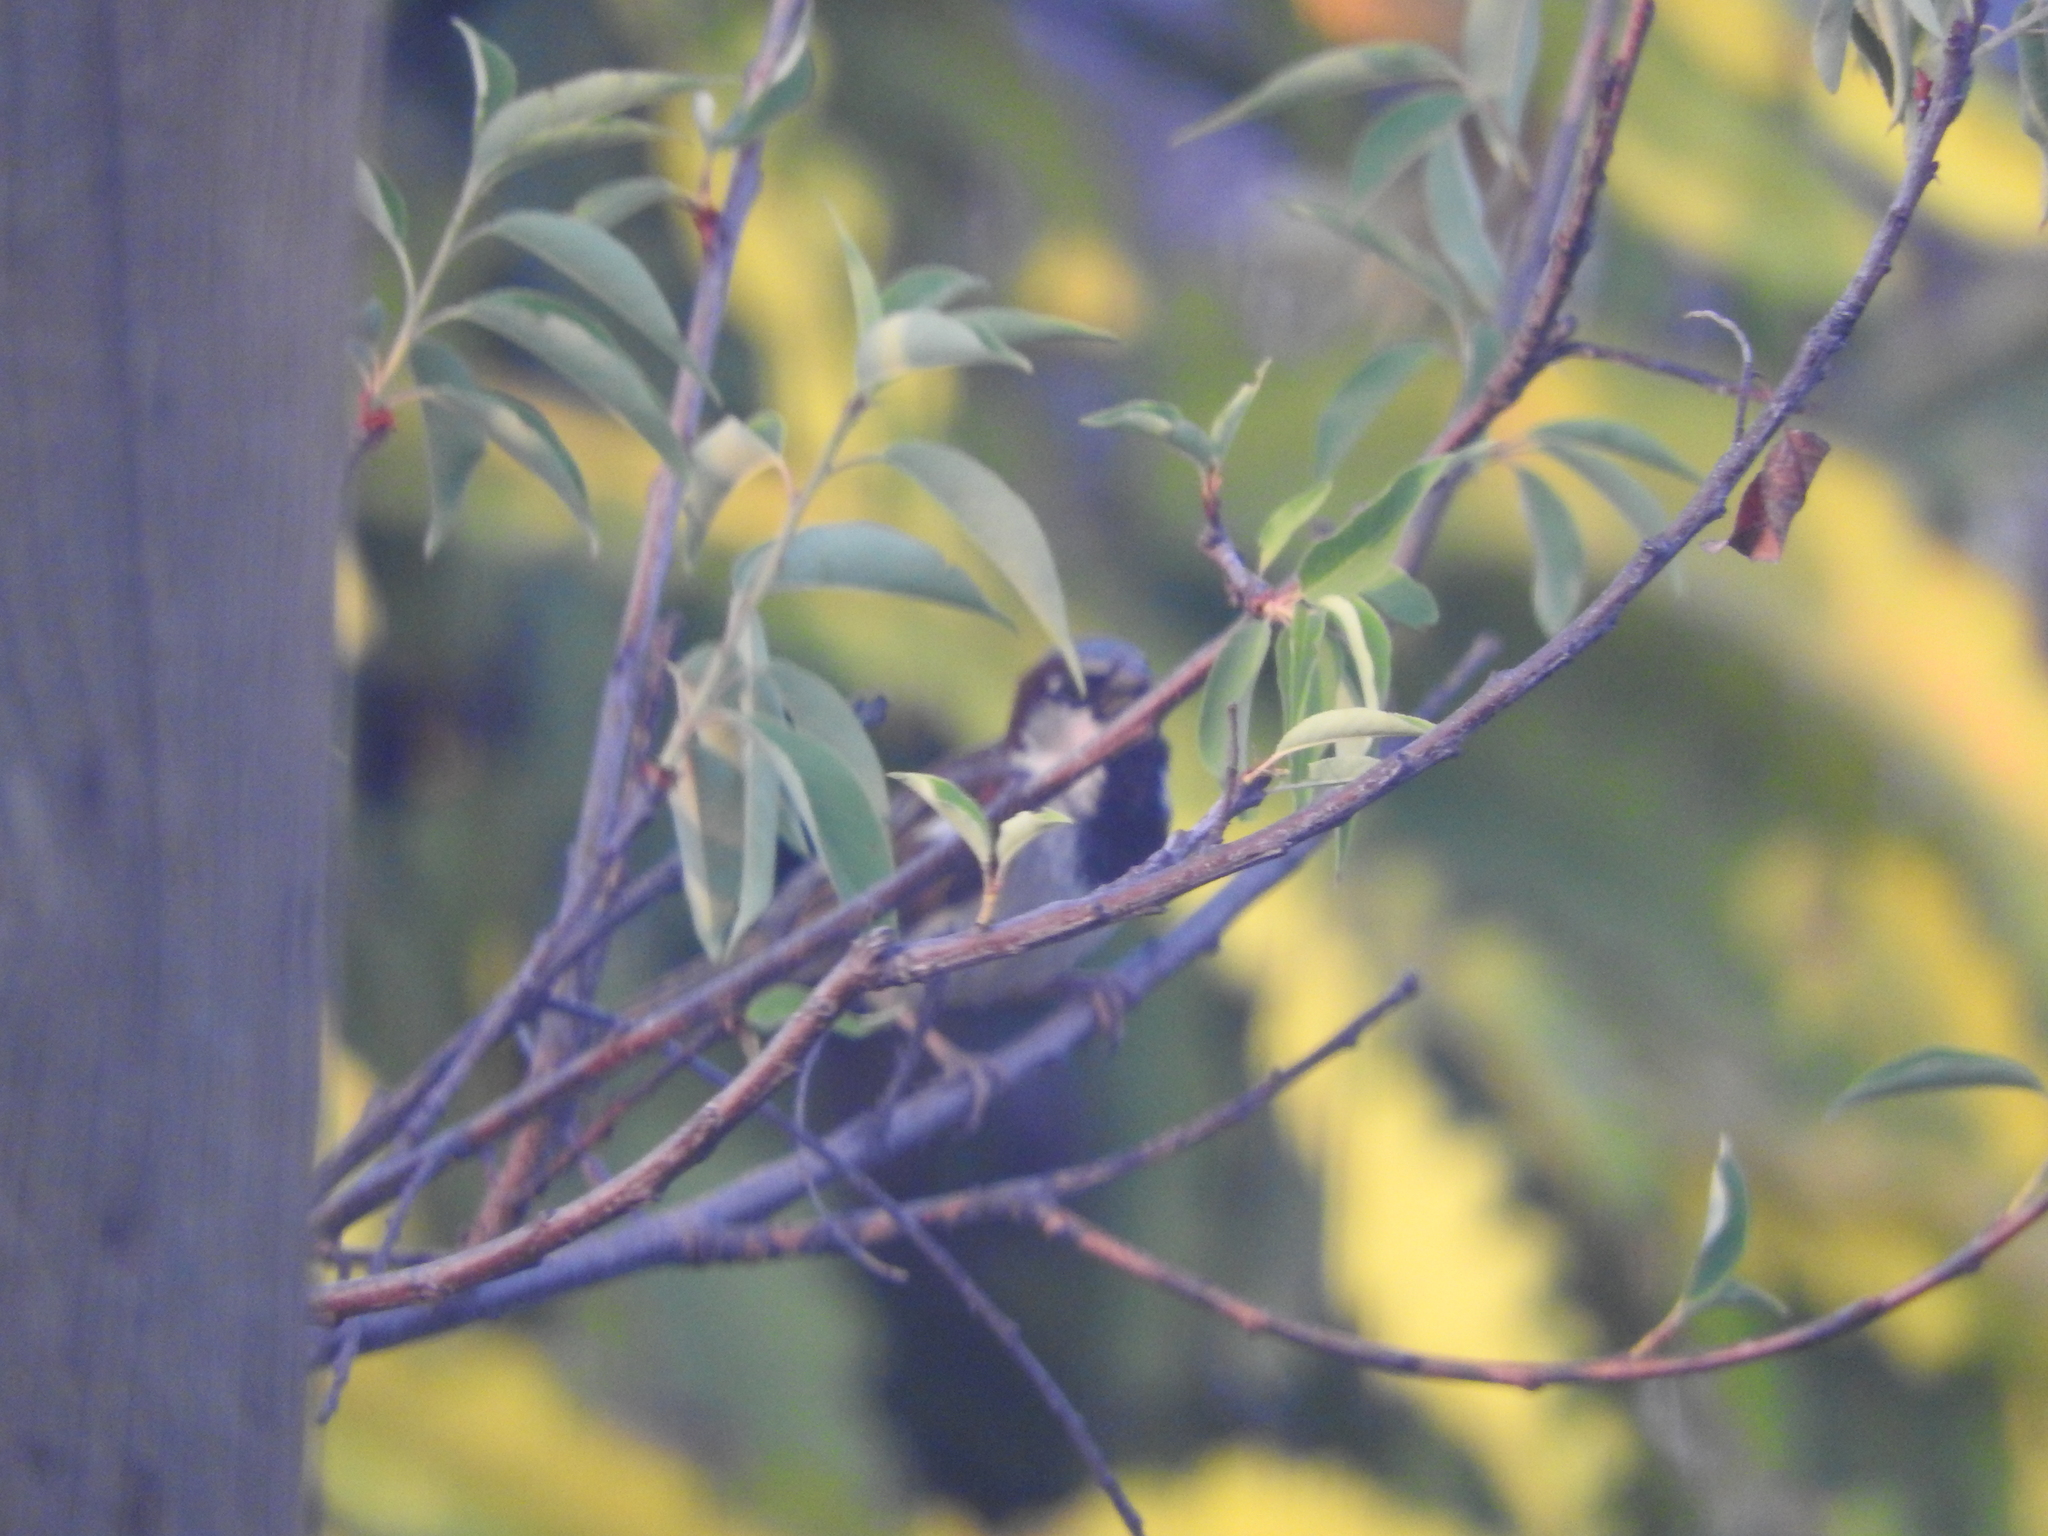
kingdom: Animalia
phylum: Chordata
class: Aves
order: Passeriformes
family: Passeridae
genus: Passer
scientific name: Passer domesticus
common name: House sparrow
